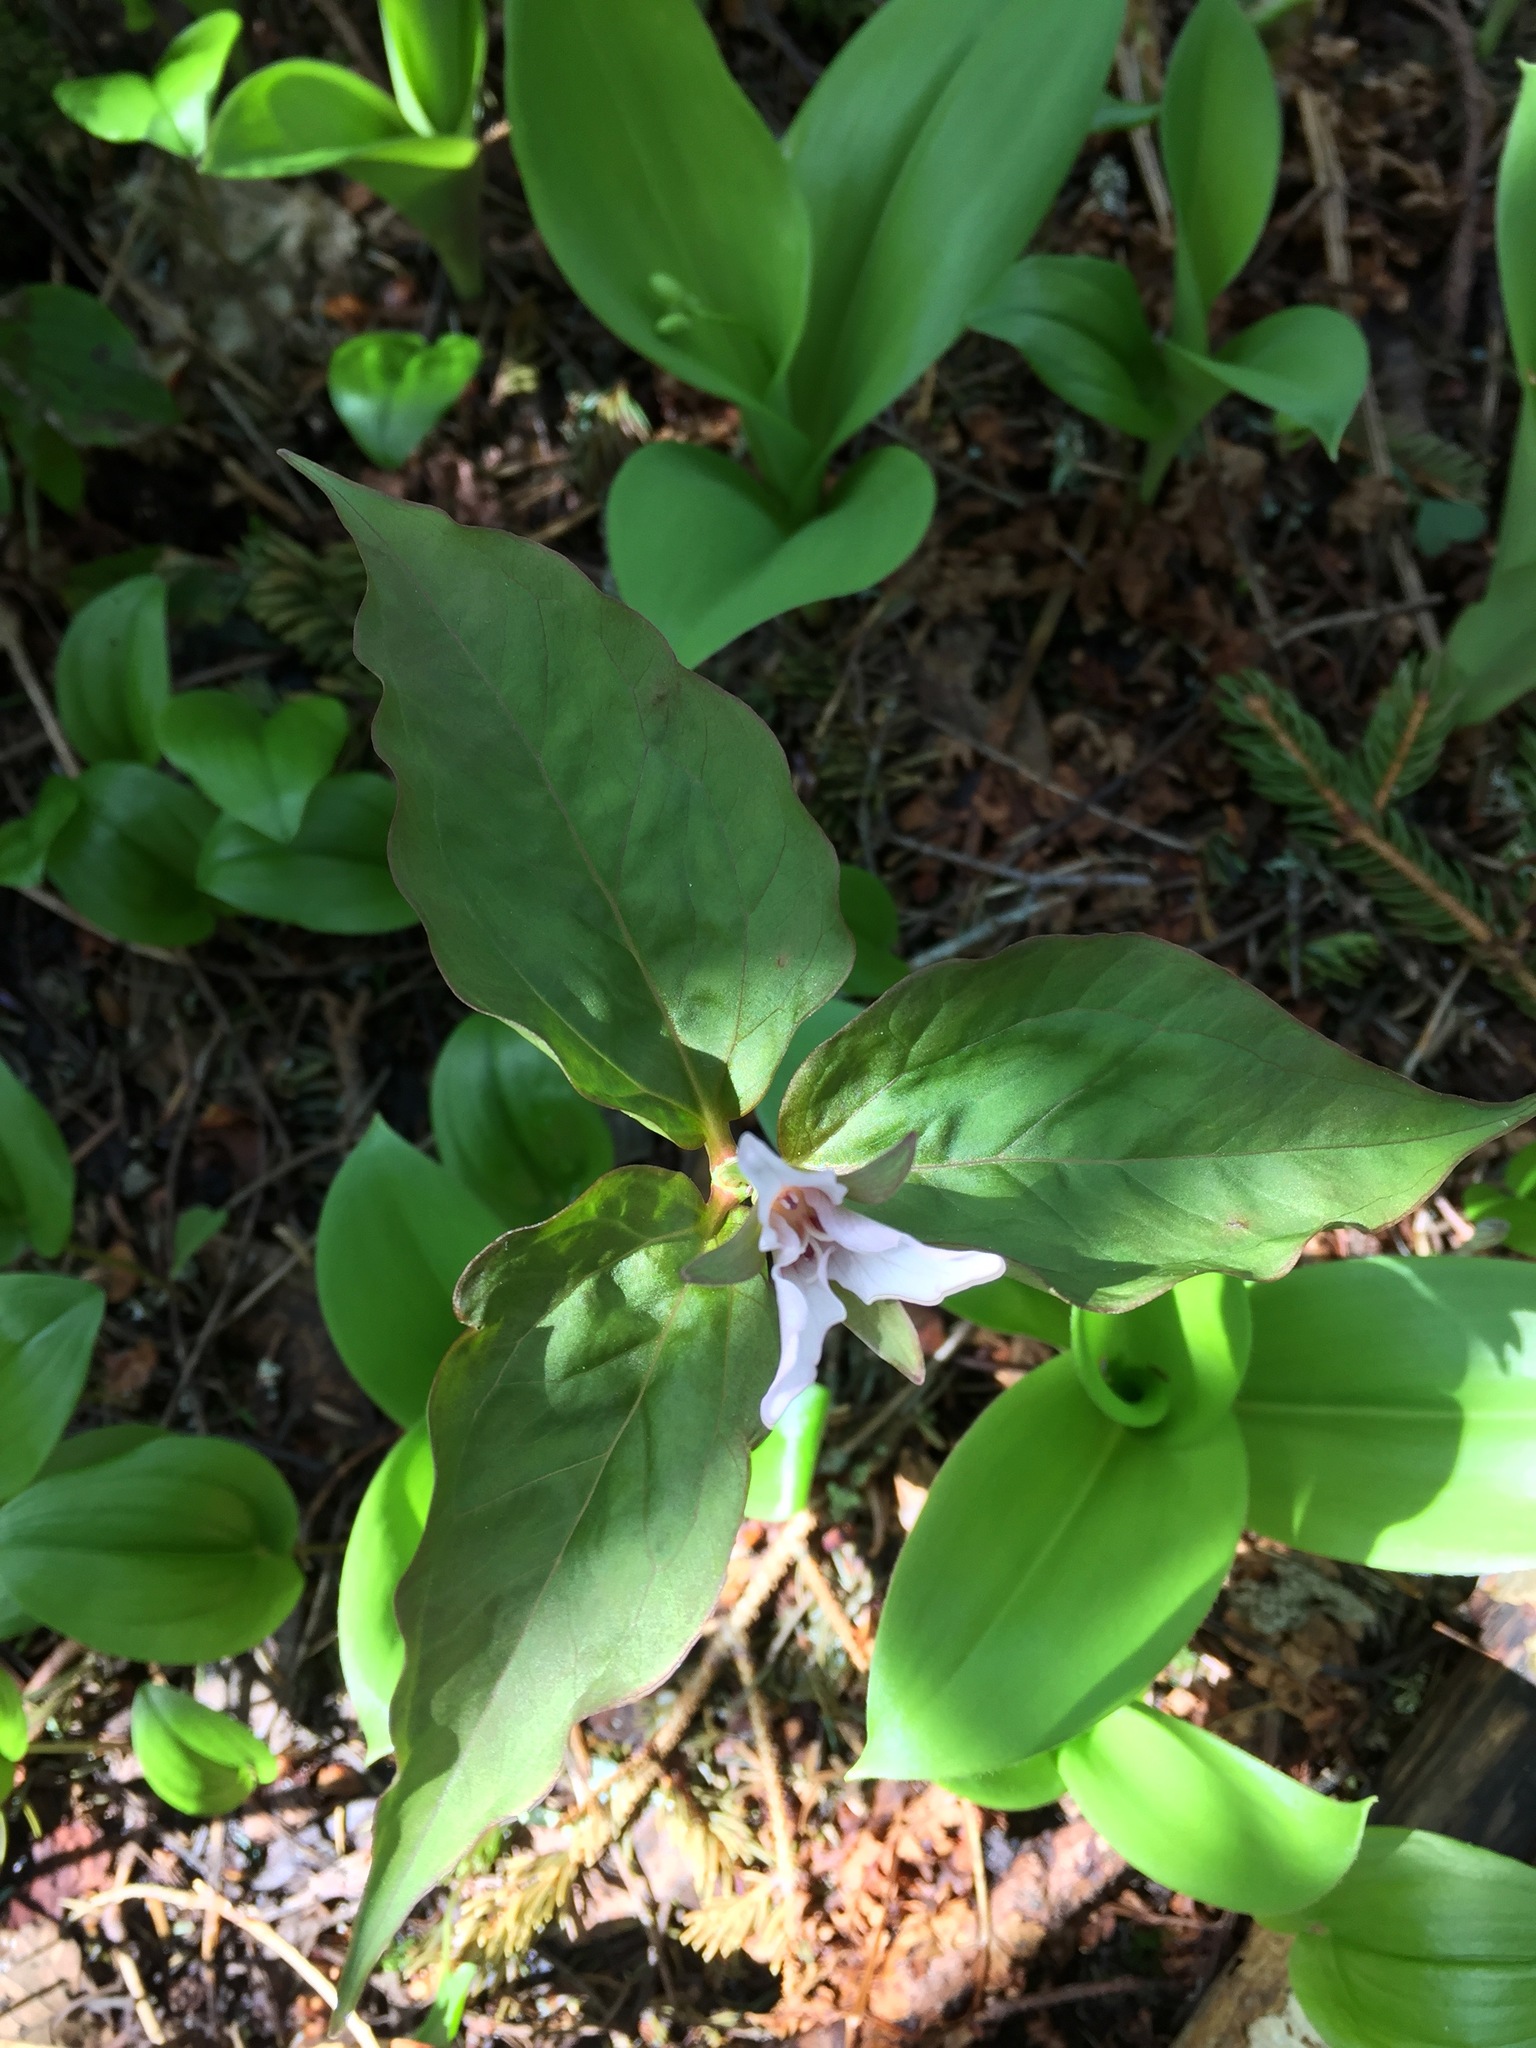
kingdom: Plantae
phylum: Tracheophyta
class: Liliopsida
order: Liliales
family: Melanthiaceae
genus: Trillium
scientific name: Trillium undulatum
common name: Paint trillium
